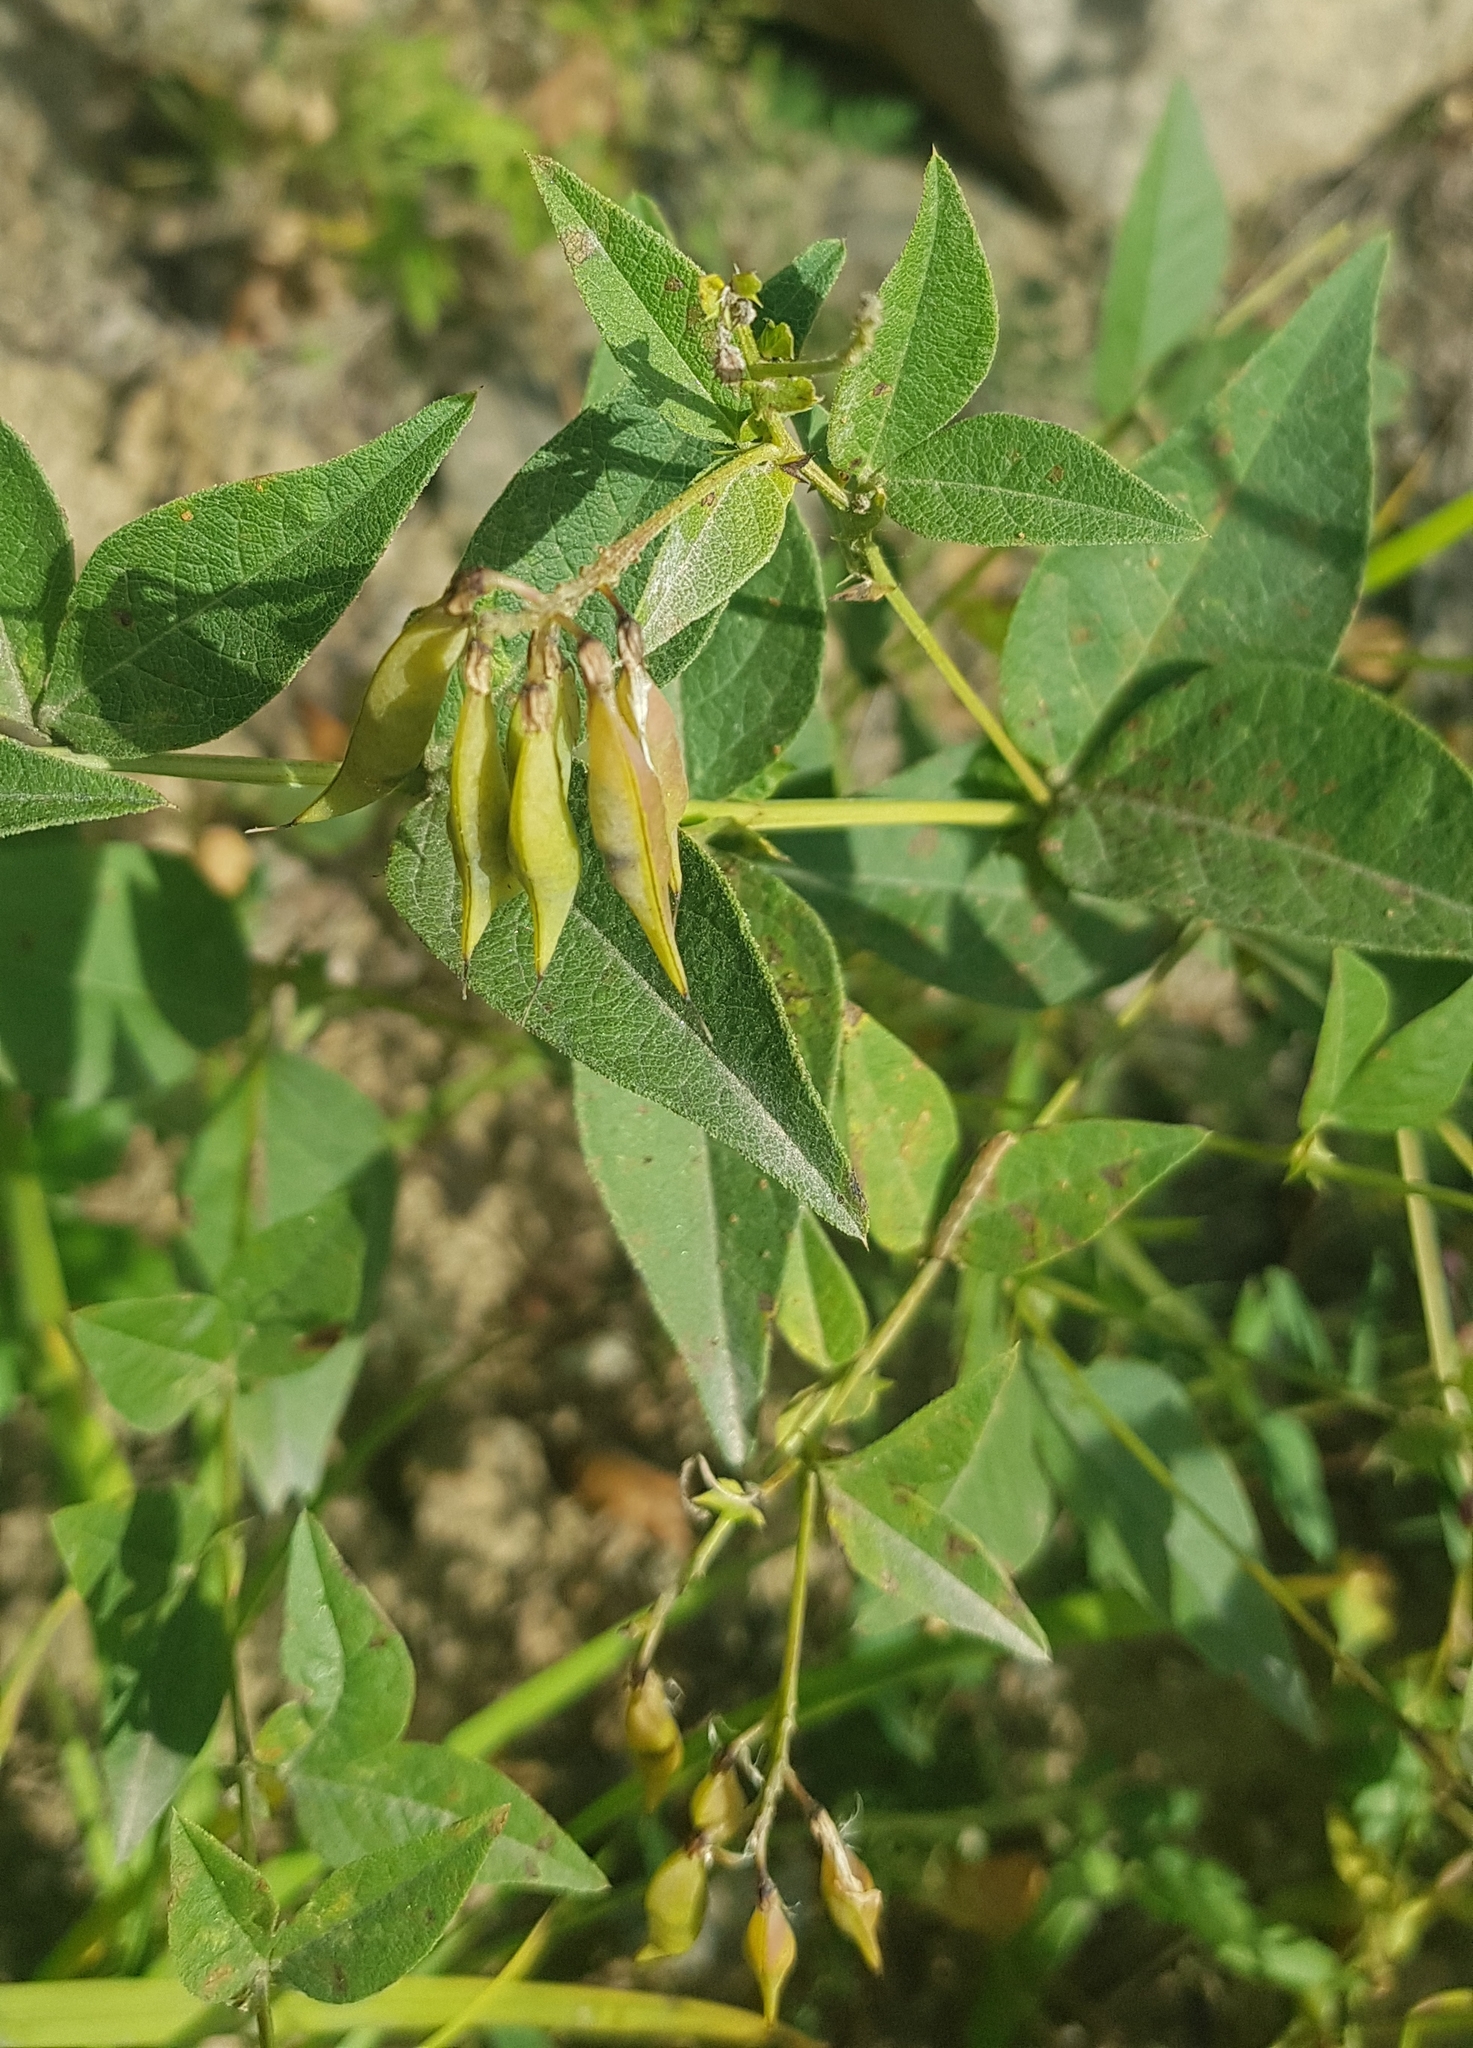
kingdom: Plantae
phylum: Tracheophyta
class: Magnoliopsida
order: Fabales
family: Fabaceae
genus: Vicia
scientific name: Vicia unijuga
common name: Two-leaf vetch
